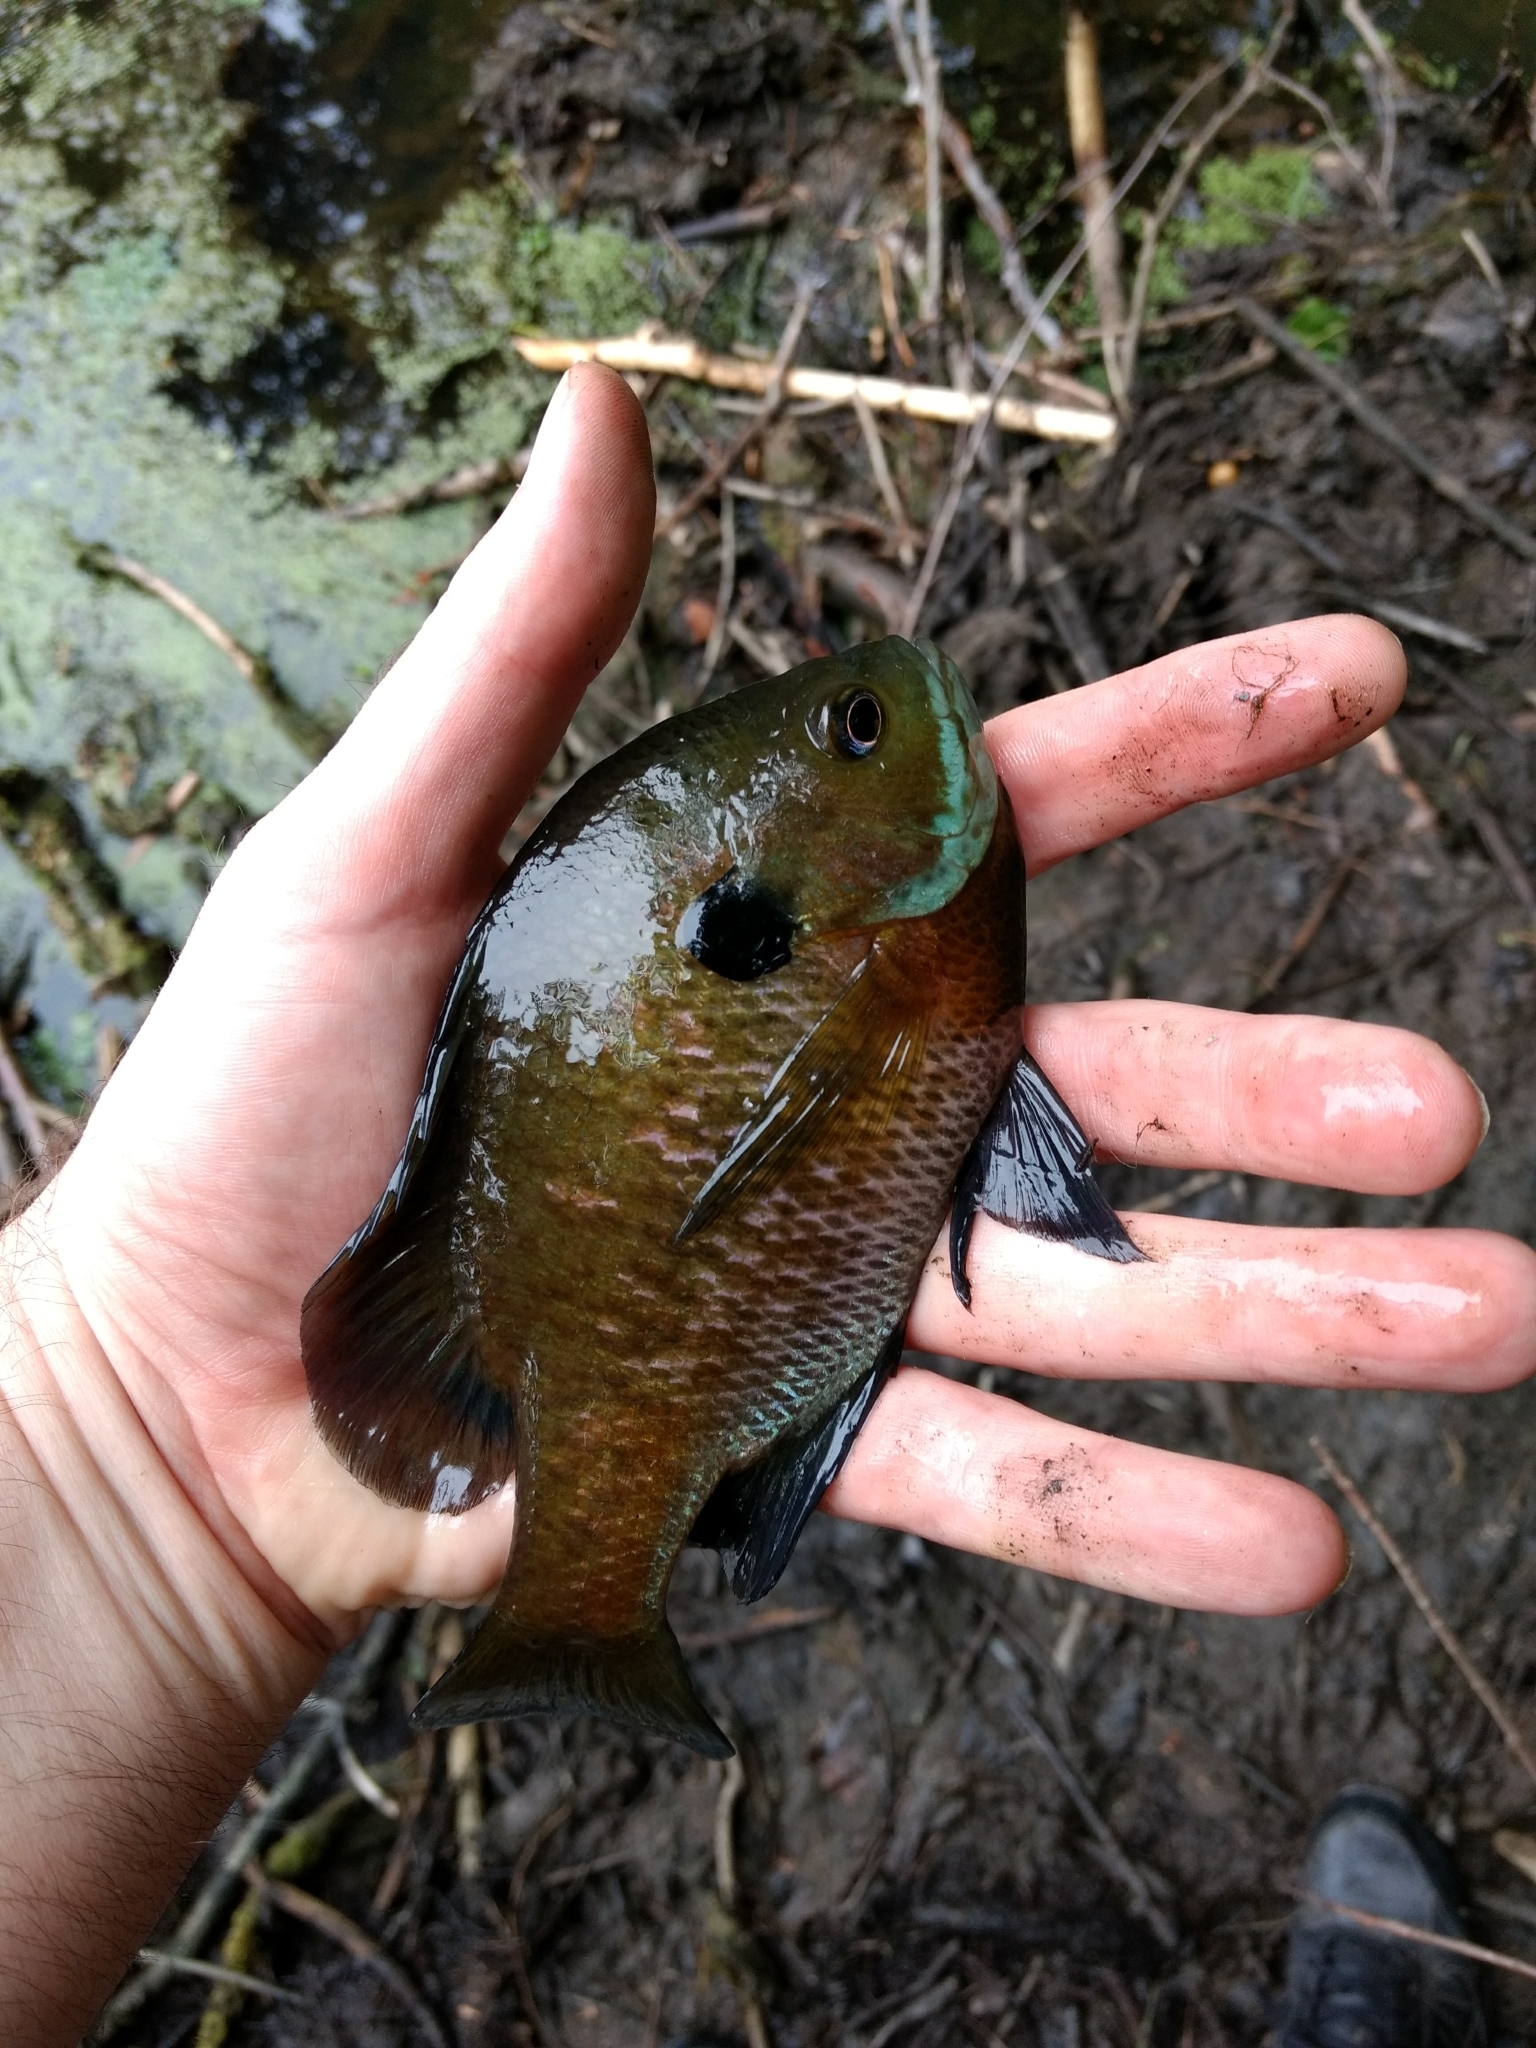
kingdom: Animalia
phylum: Chordata
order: Perciformes
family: Centrarchidae
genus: Lepomis
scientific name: Lepomis macrochirus
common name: Bluegill
